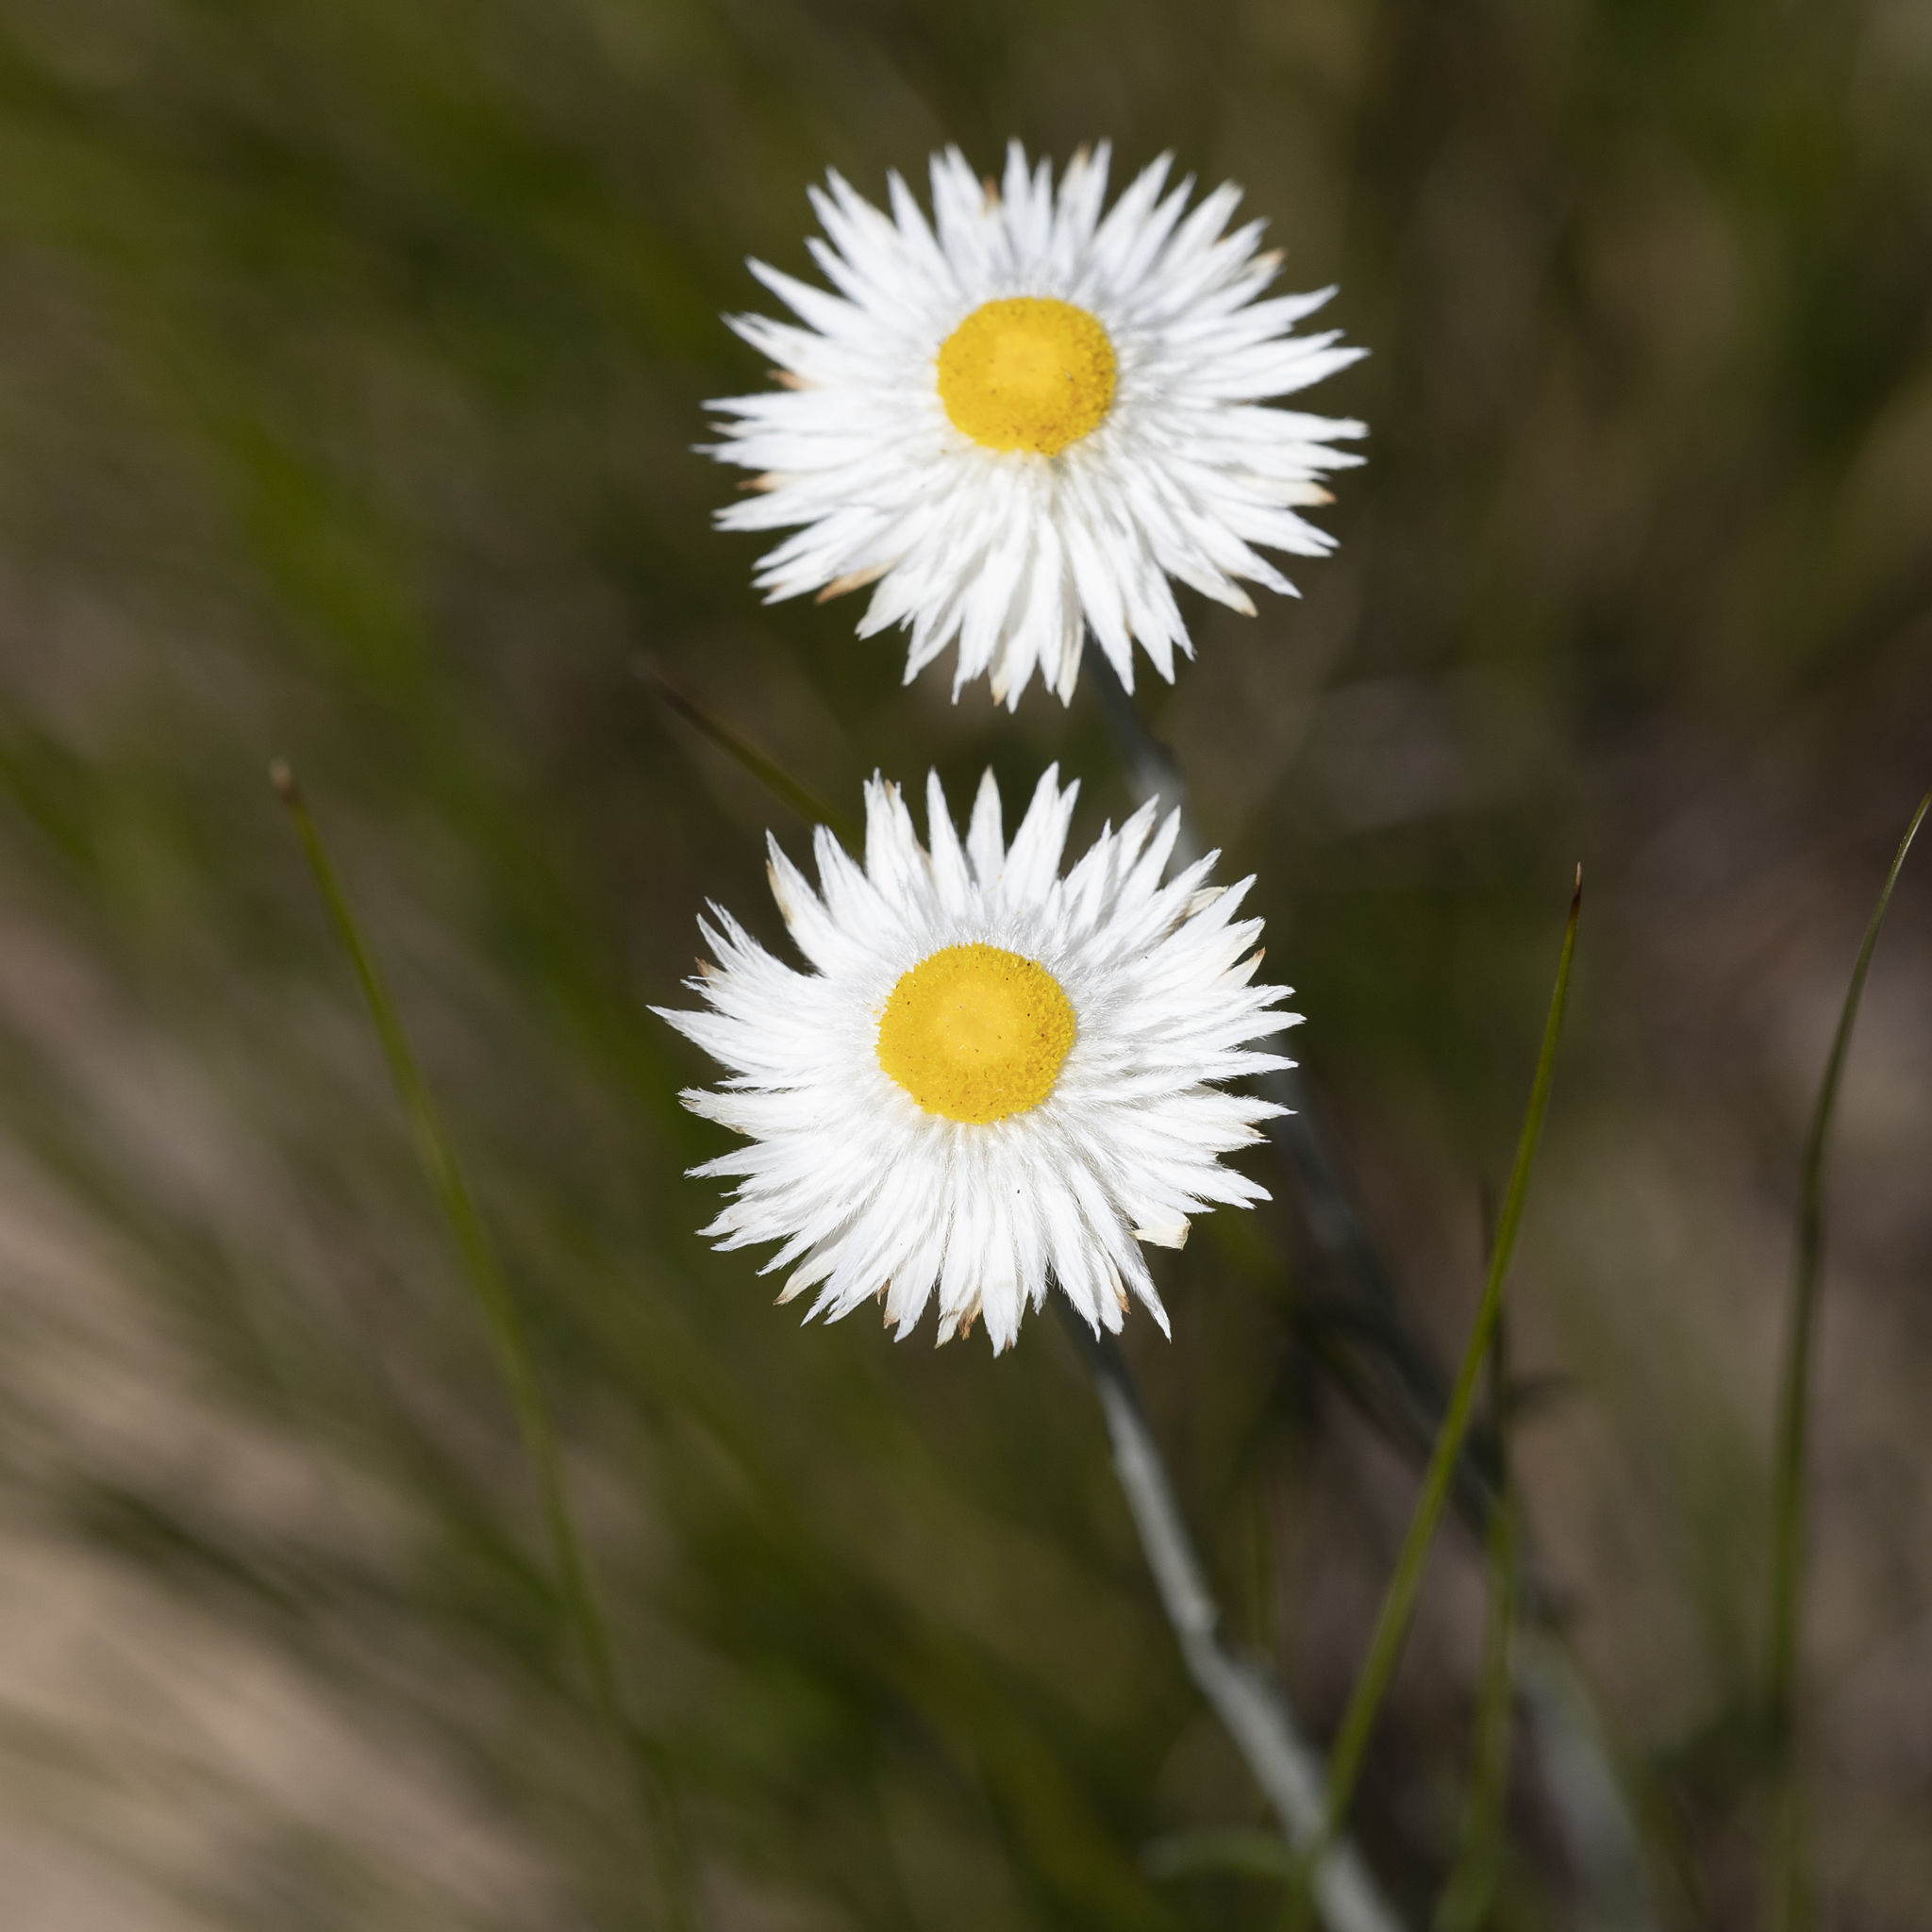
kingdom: Plantae
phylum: Tracheophyta
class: Magnoliopsida
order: Asterales
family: Asteraceae
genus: Chrysocephalum
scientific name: Chrysocephalum baxteri
